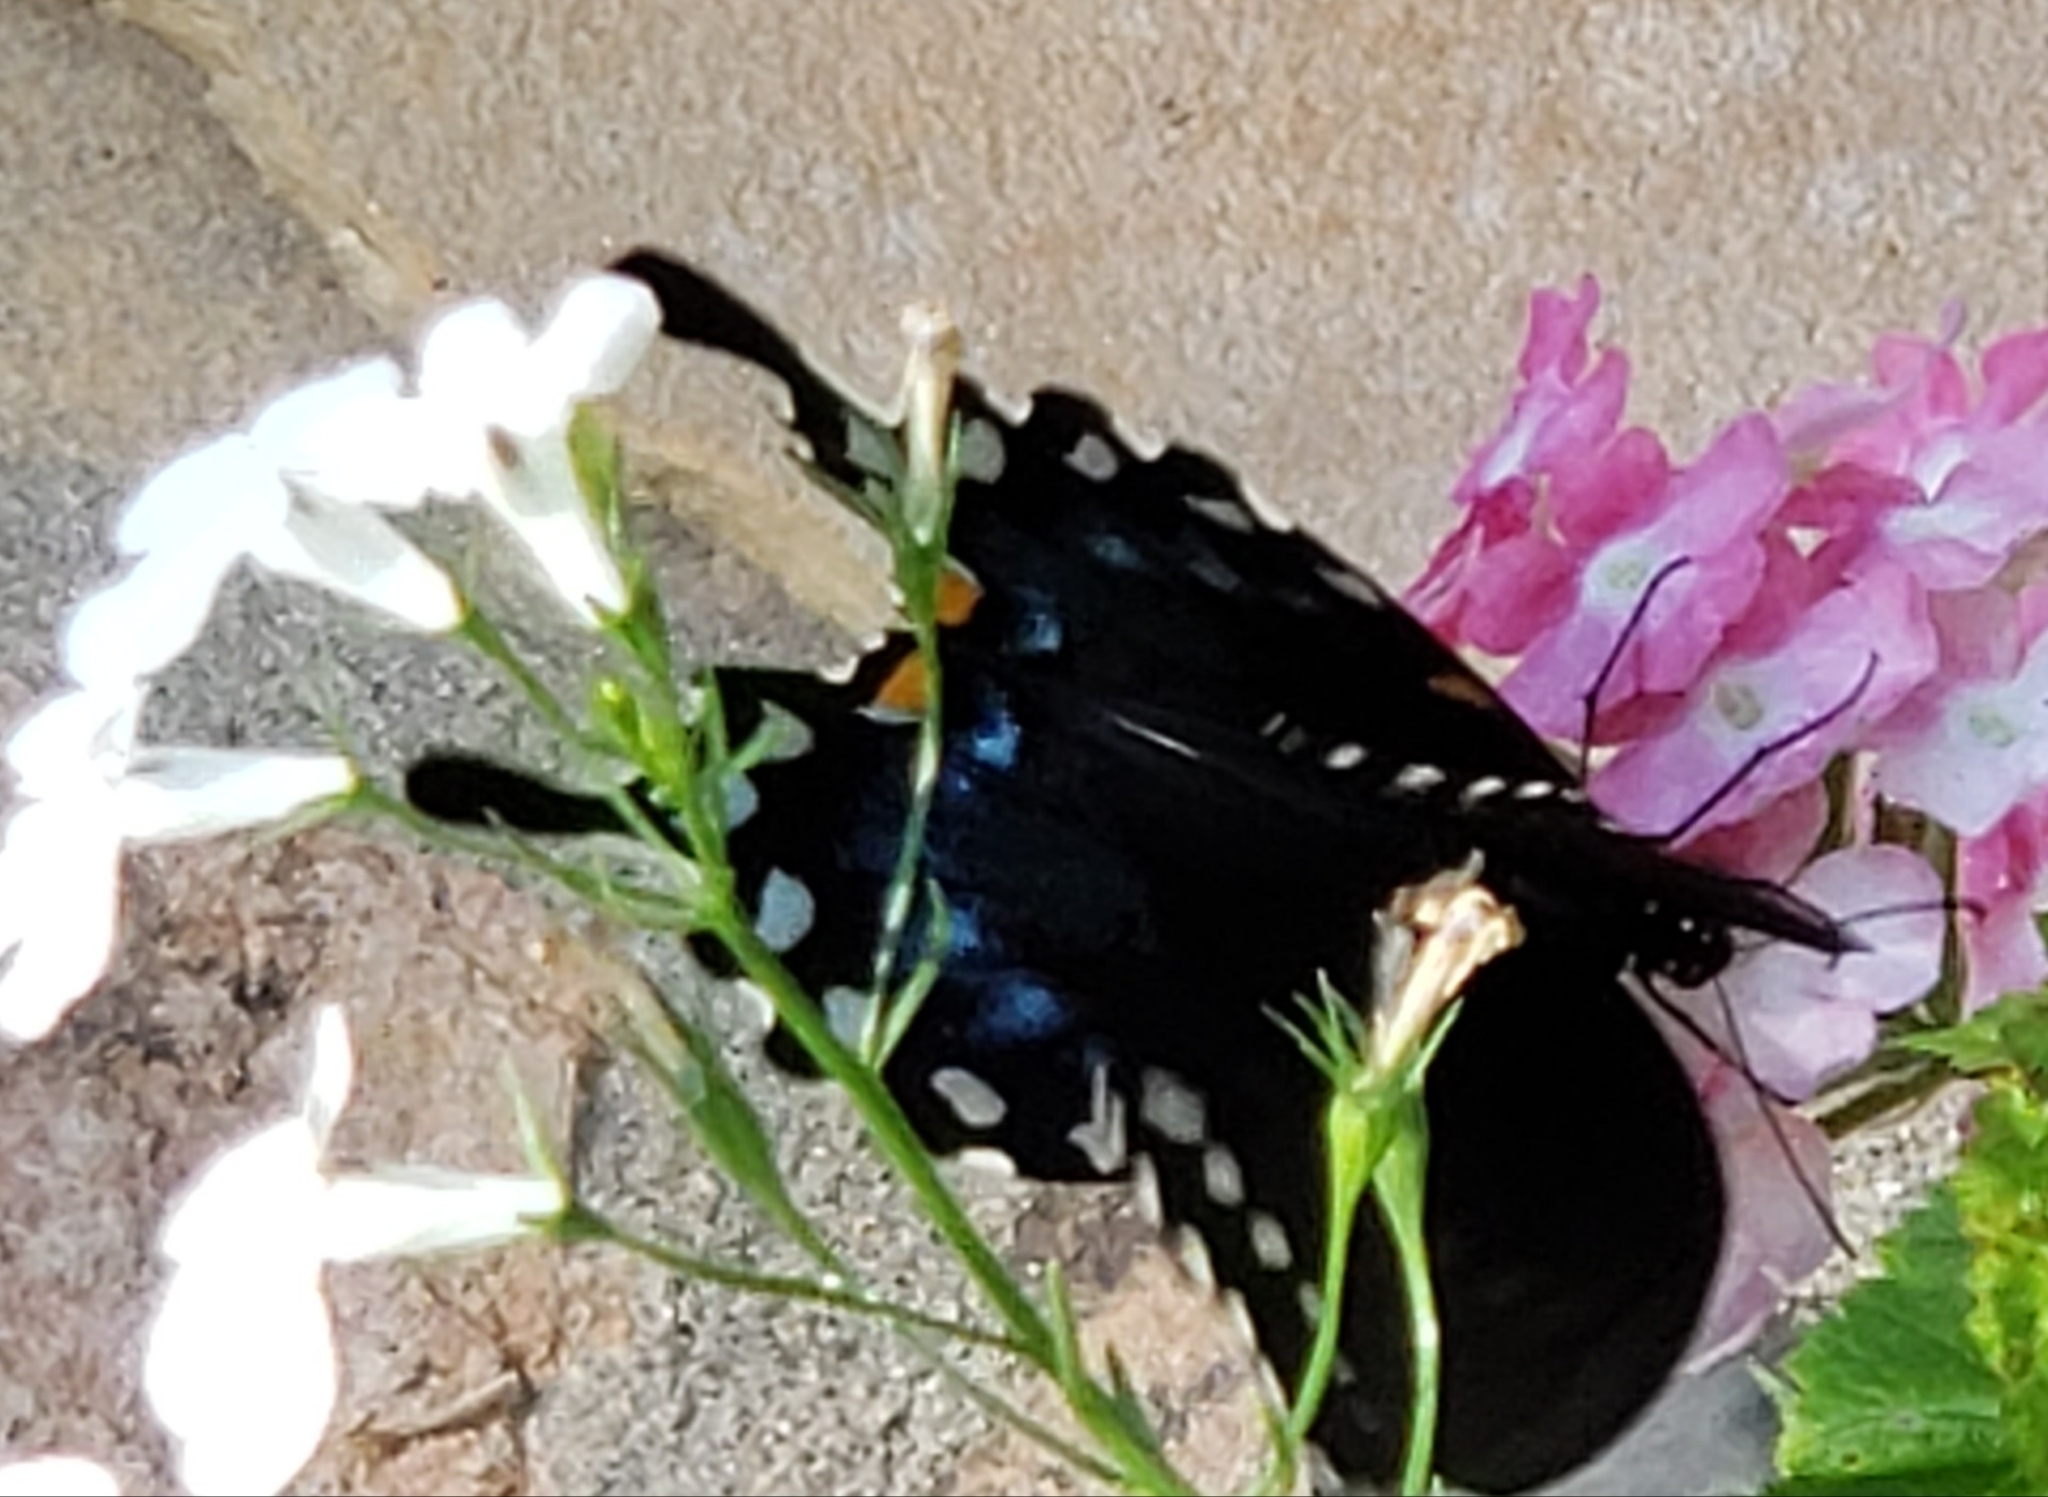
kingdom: Animalia
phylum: Arthropoda
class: Insecta
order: Lepidoptera
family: Papilionidae
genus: Papilio
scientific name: Papilio troilus
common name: Spicebush swallowtail
